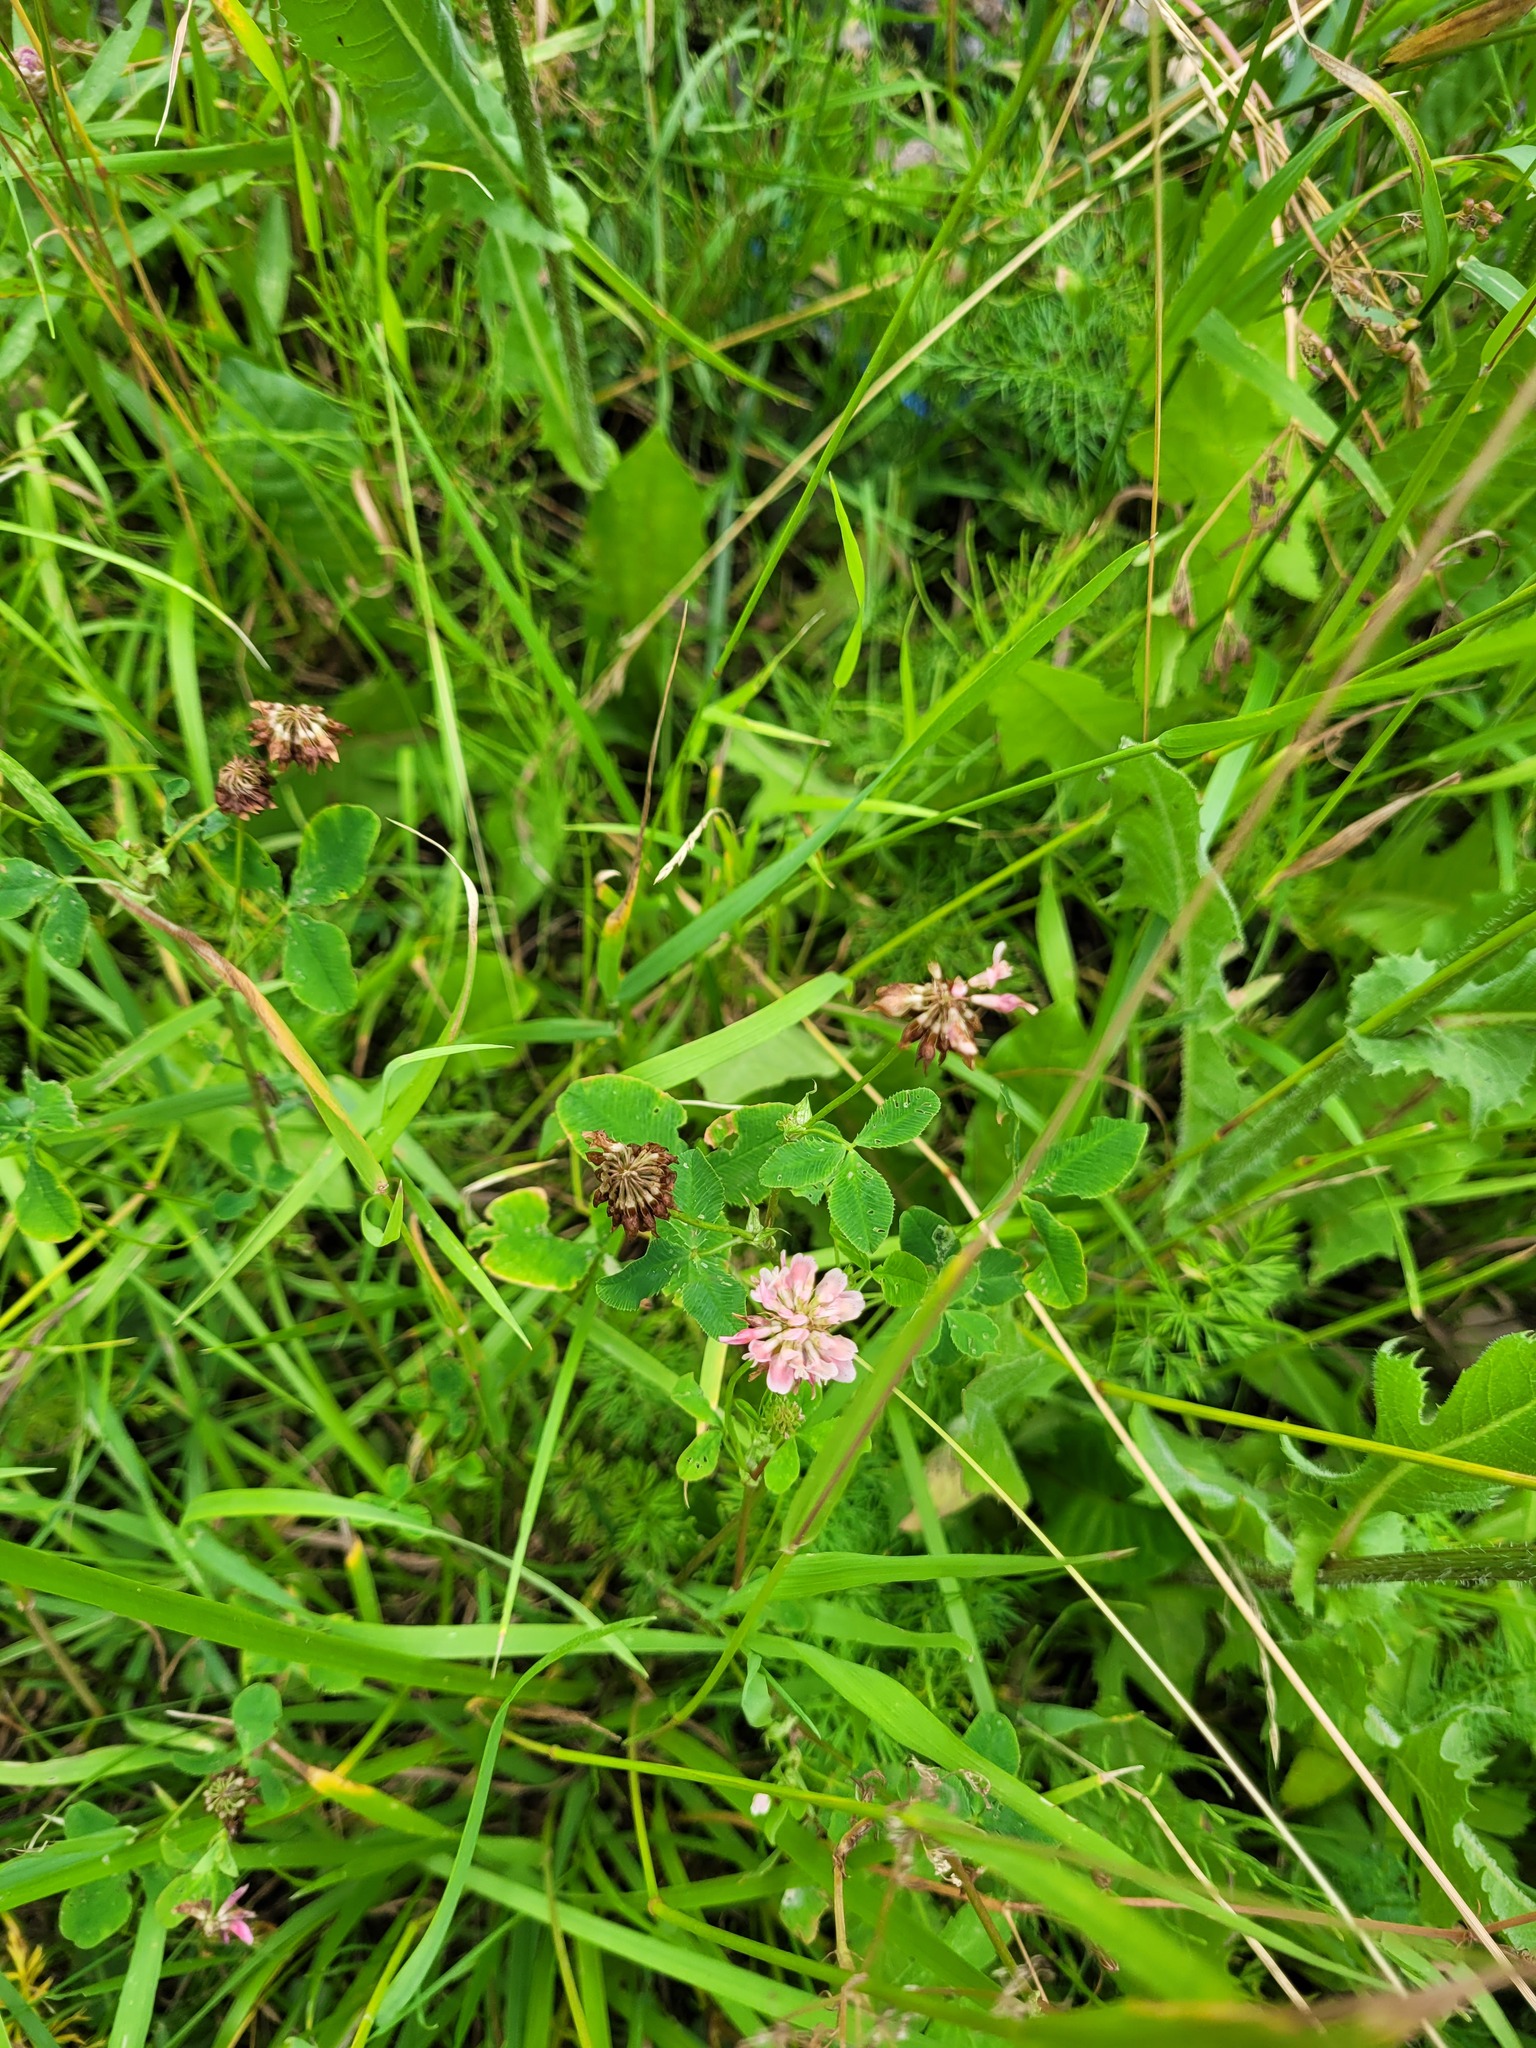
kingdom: Plantae
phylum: Tracheophyta
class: Magnoliopsida
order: Fabales
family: Fabaceae
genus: Trifolium
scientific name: Trifolium hybridum
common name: Alsike clover
